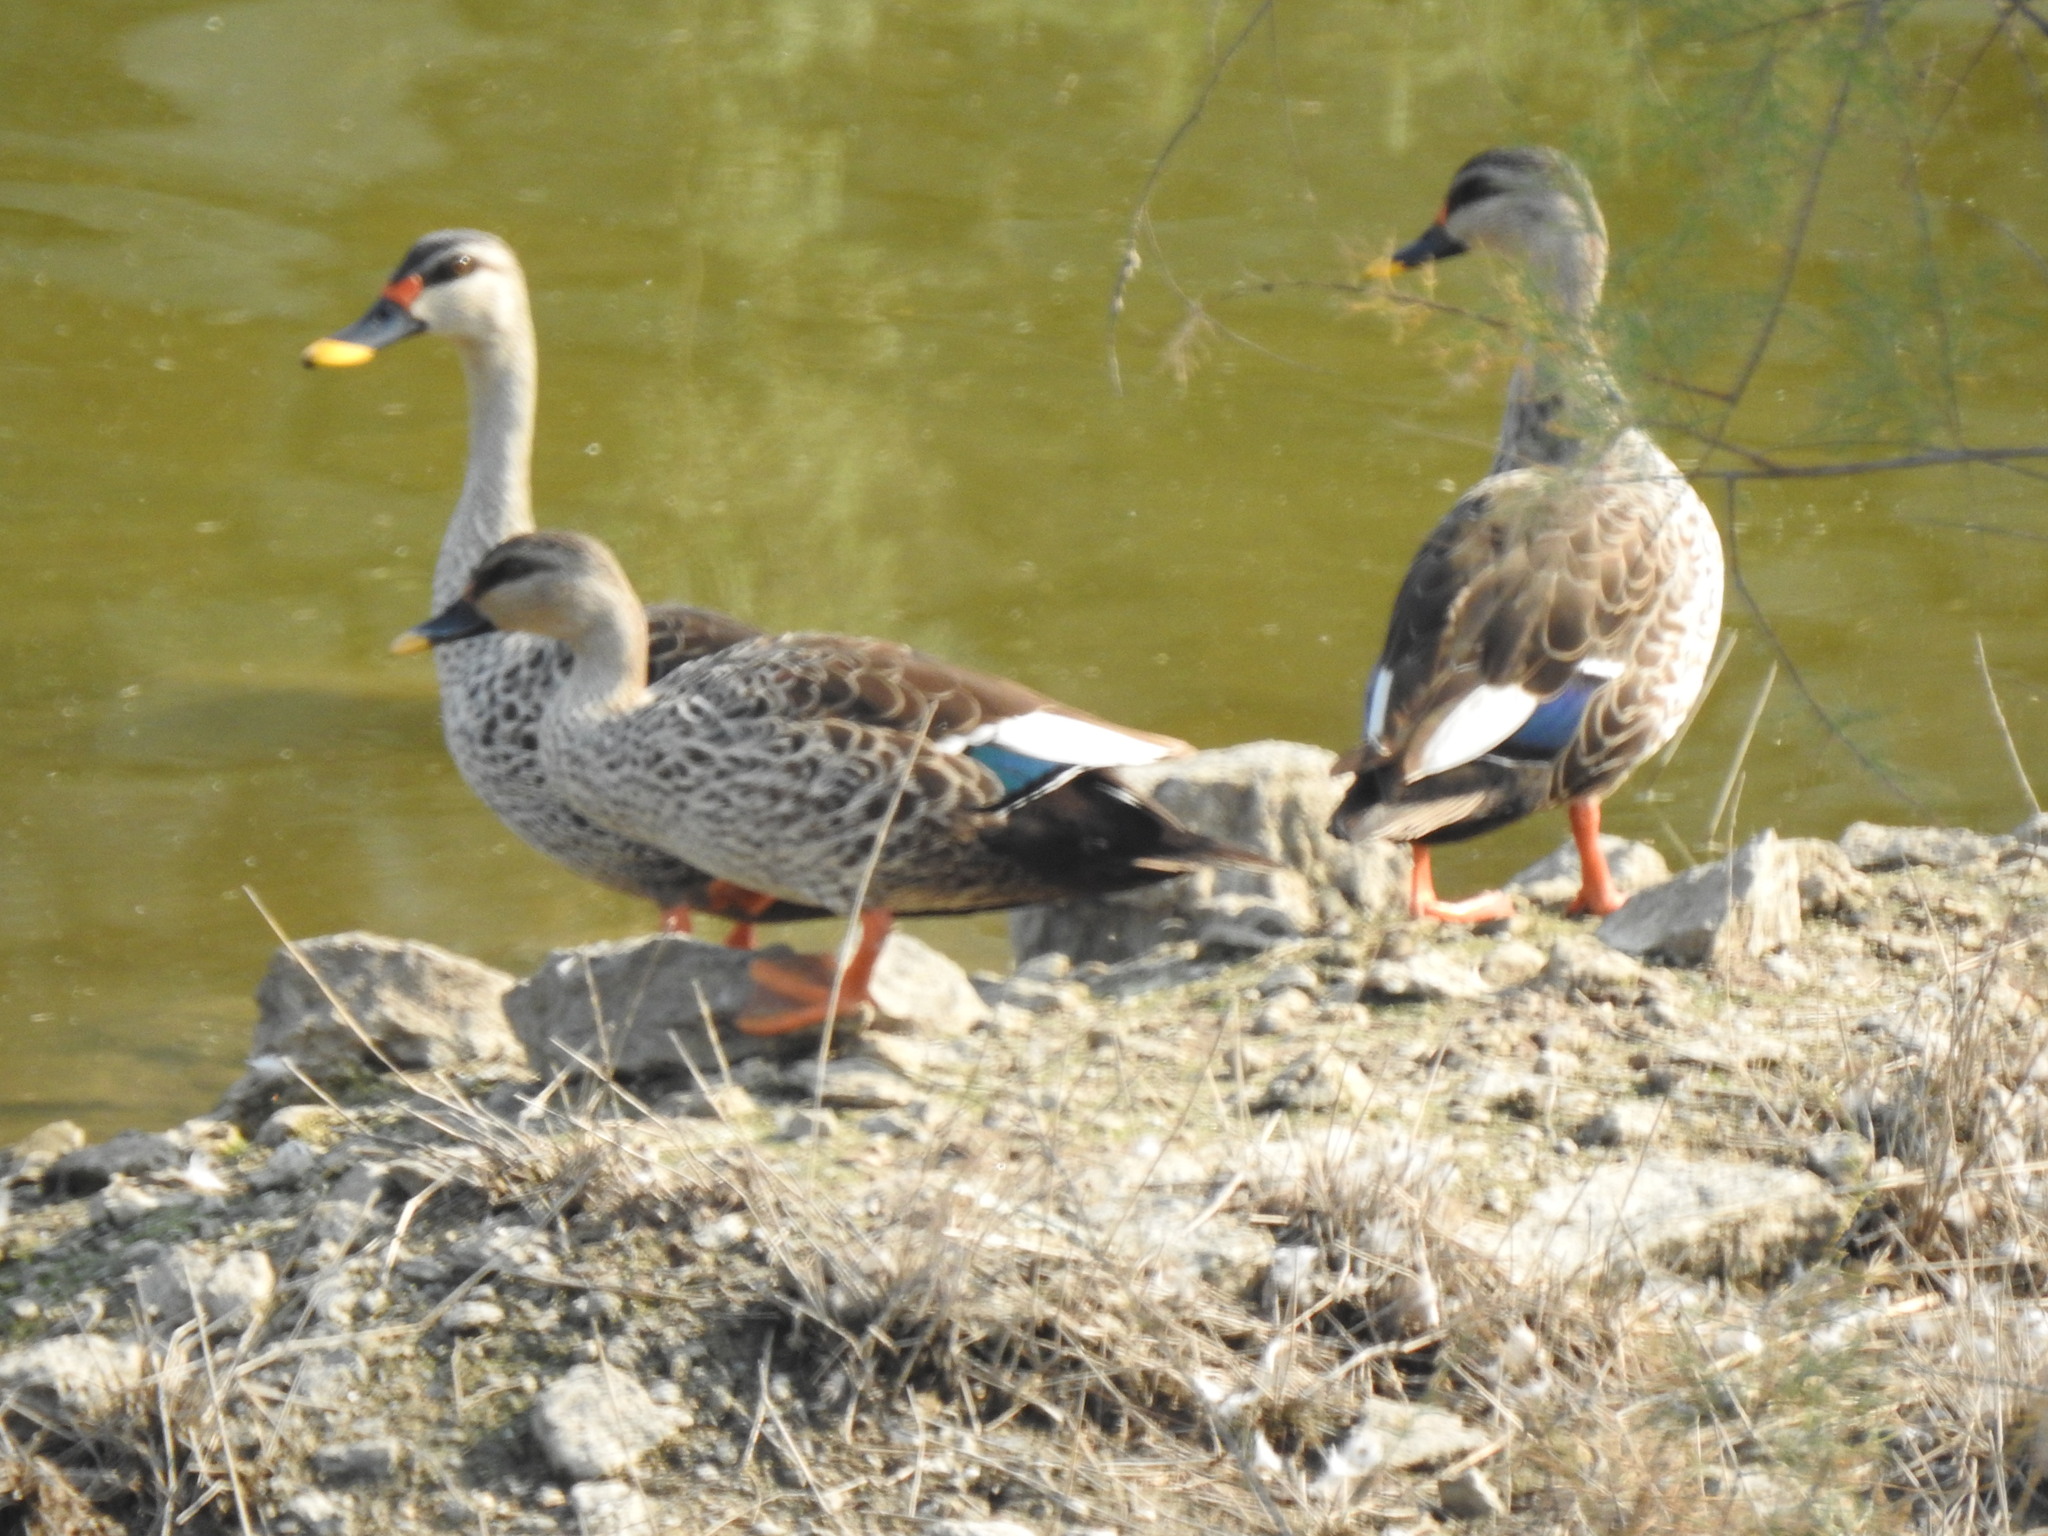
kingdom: Animalia
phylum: Chordata
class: Aves
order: Anseriformes
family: Anatidae
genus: Anas
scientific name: Anas poecilorhyncha
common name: Indian spot-billed duck
